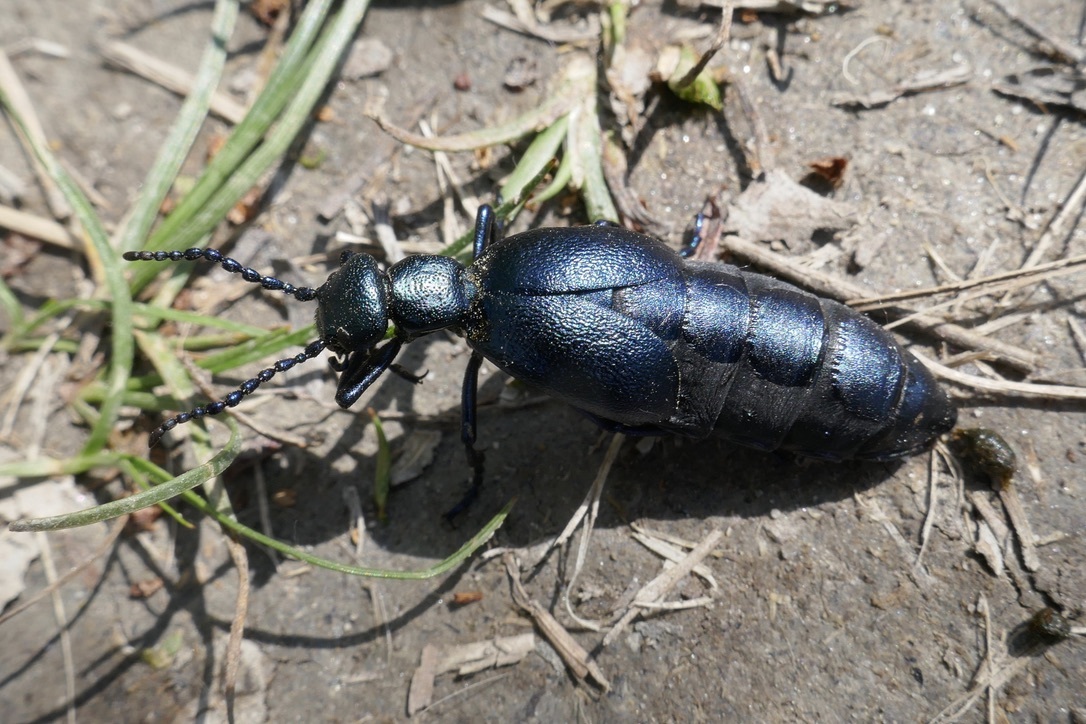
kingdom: Animalia
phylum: Arthropoda
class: Insecta
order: Coleoptera
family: Meloidae
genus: Meloe
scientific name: Meloe violaceus
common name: Violet oil-beetle
